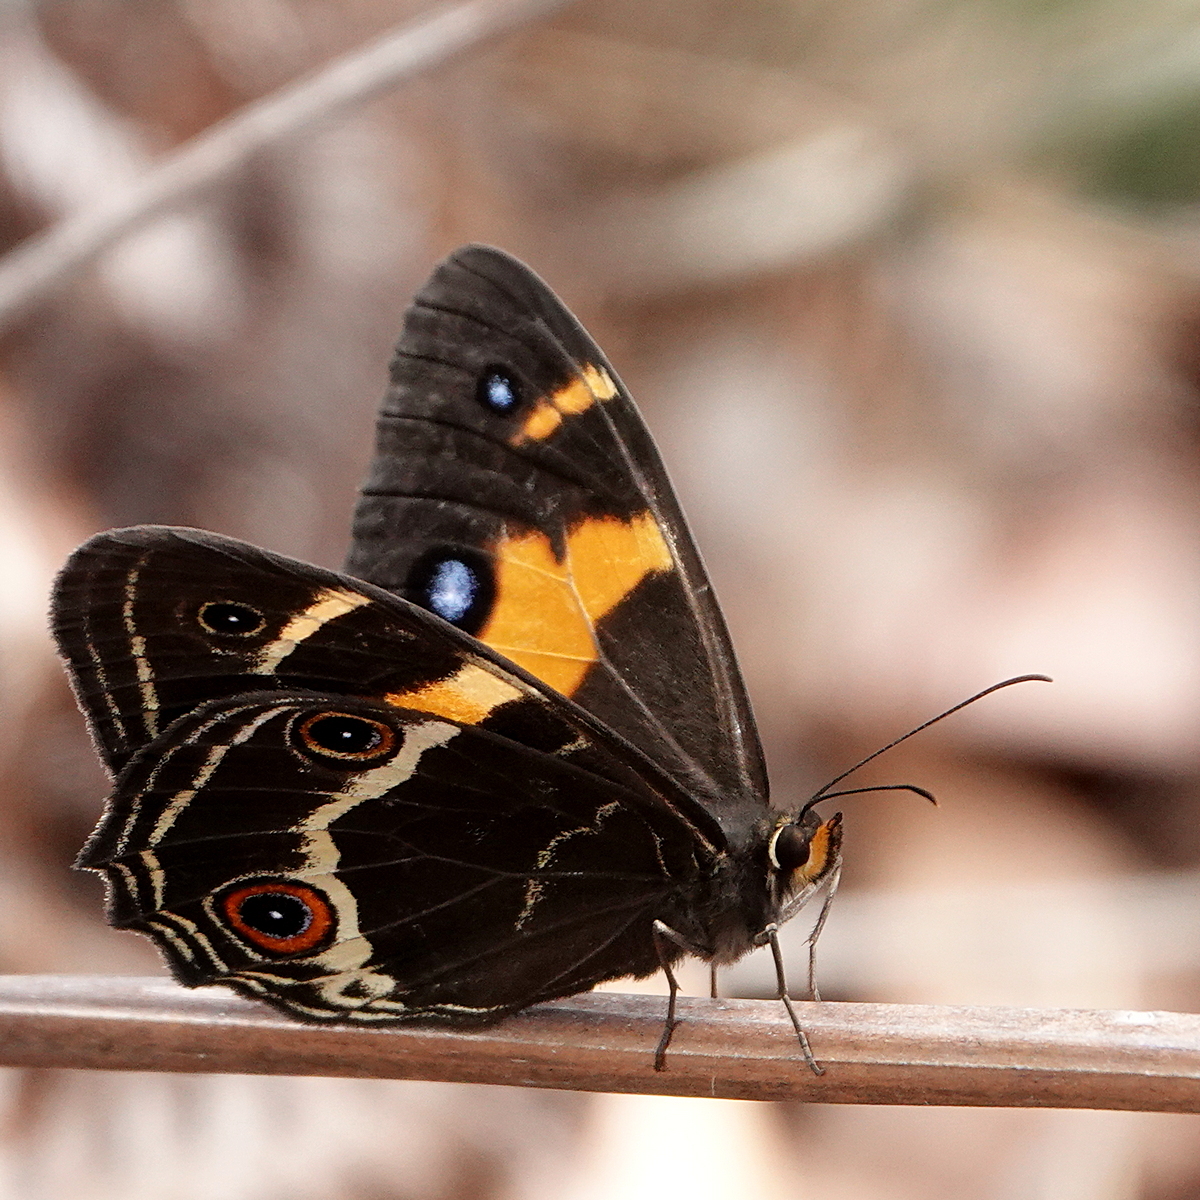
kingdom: Animalia
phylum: Arthropoda
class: Insecta
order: Lepidoptera
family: Nymphalidae
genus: Tisiphone
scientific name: Tisiphone abeona
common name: Swordgrass brown
